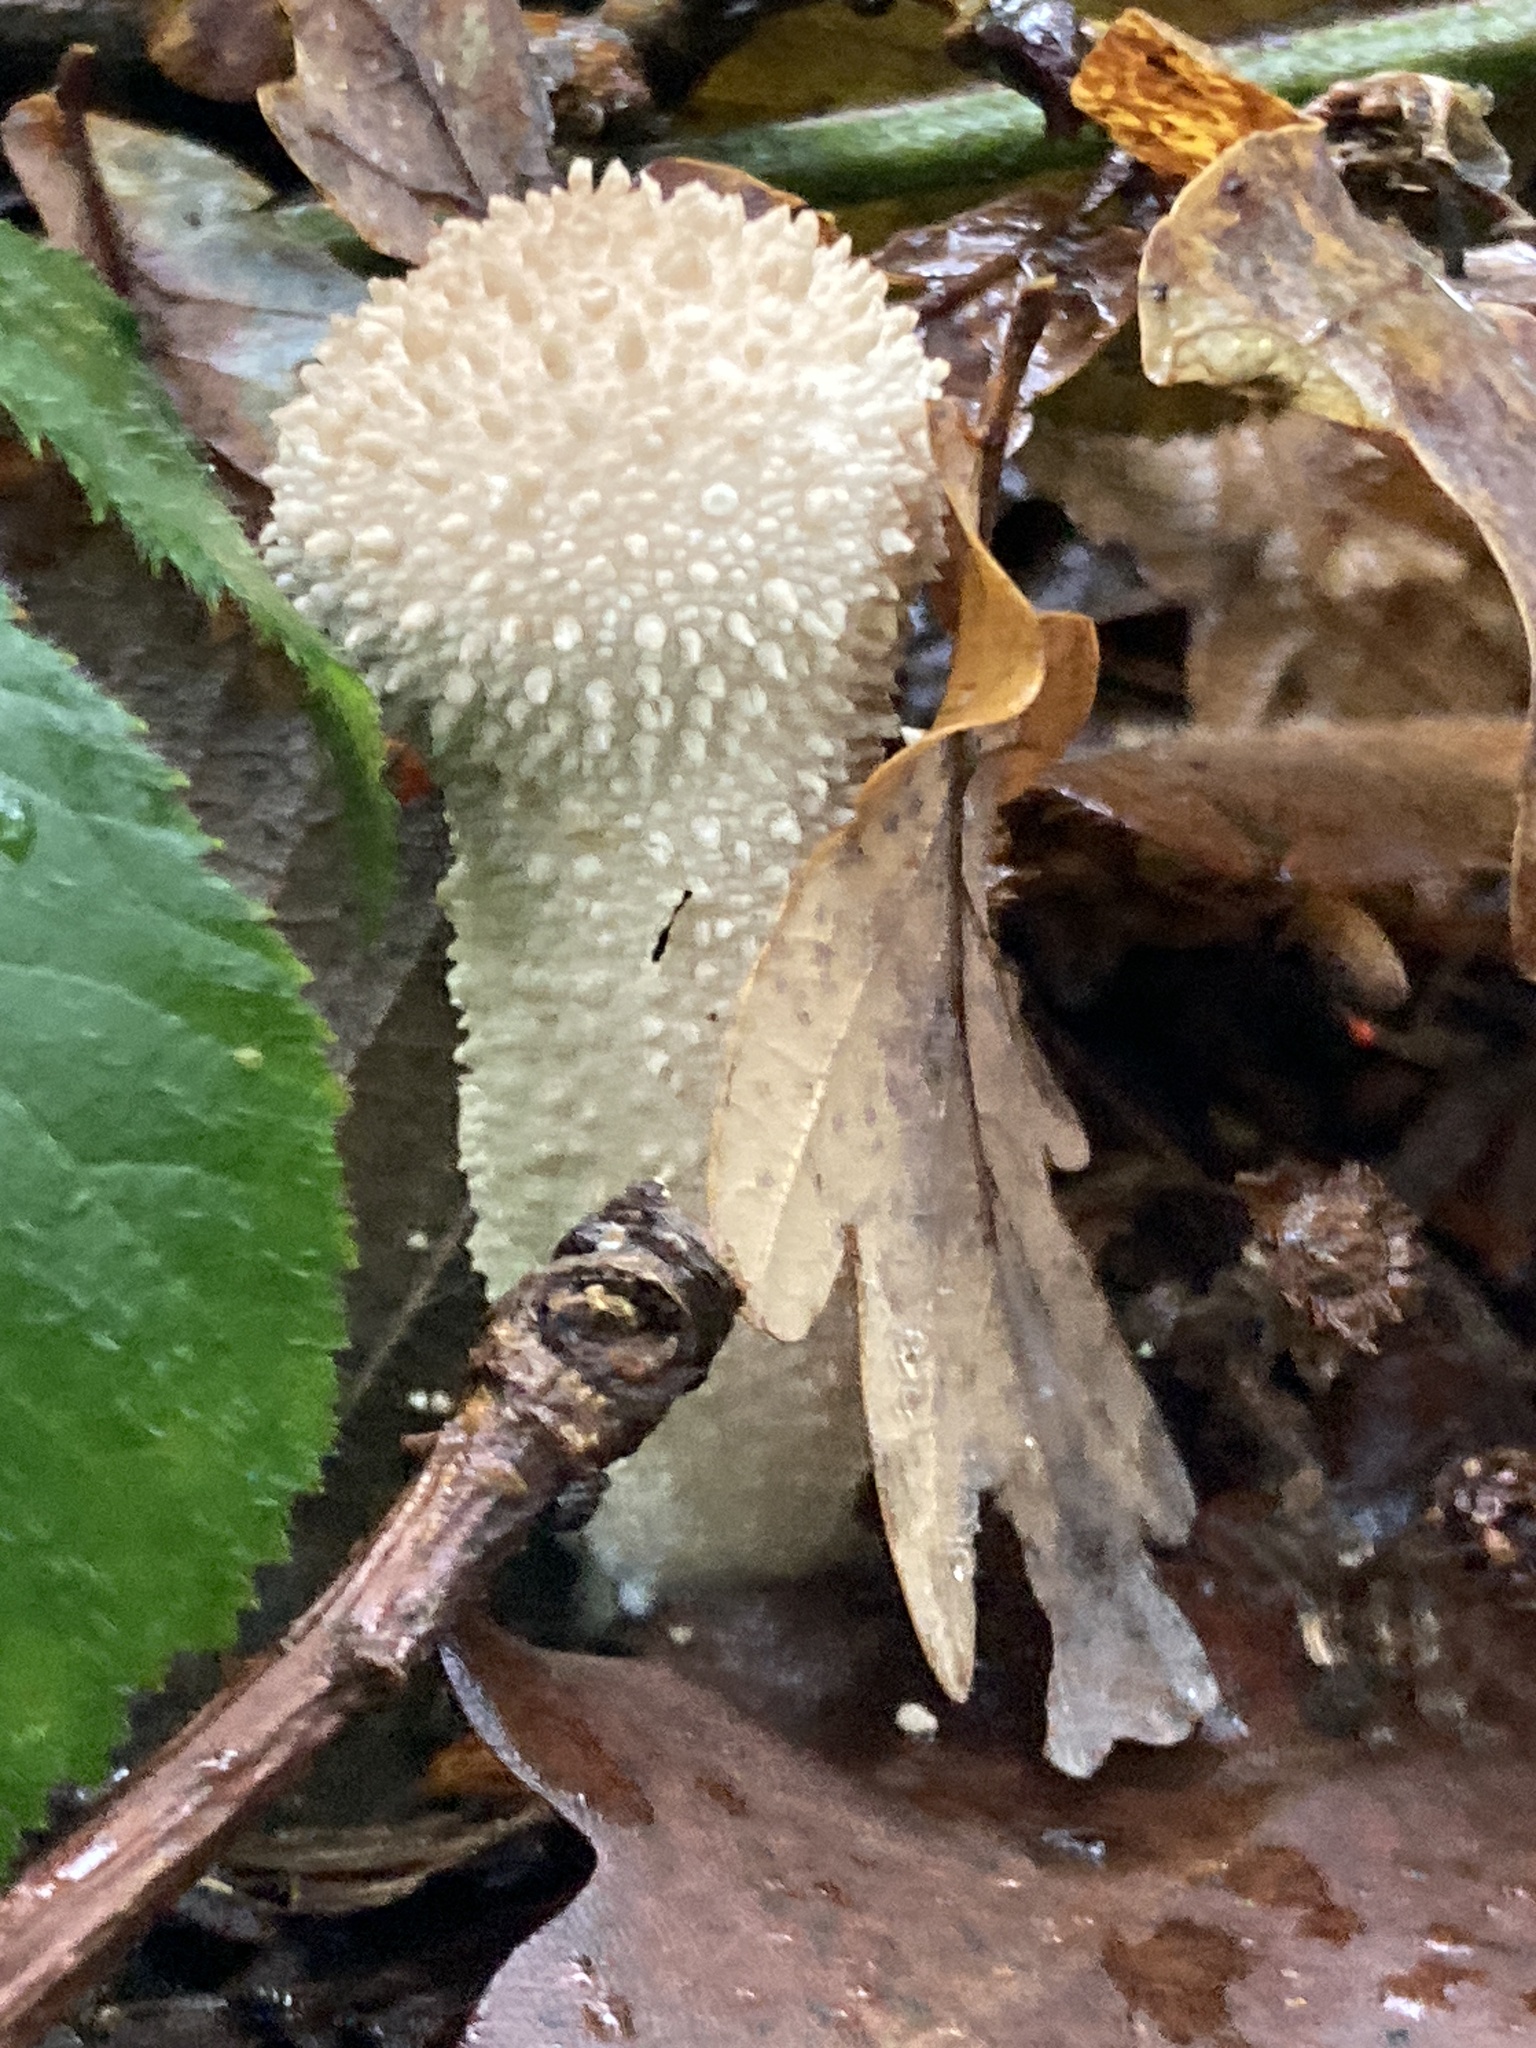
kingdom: Fungi
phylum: Basidiomycota
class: Agaricomycetes
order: Agaricales
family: Lycoperdaceae
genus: Lycoperdon
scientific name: Lycoperdon excipuliforme
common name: Pestle puffball
